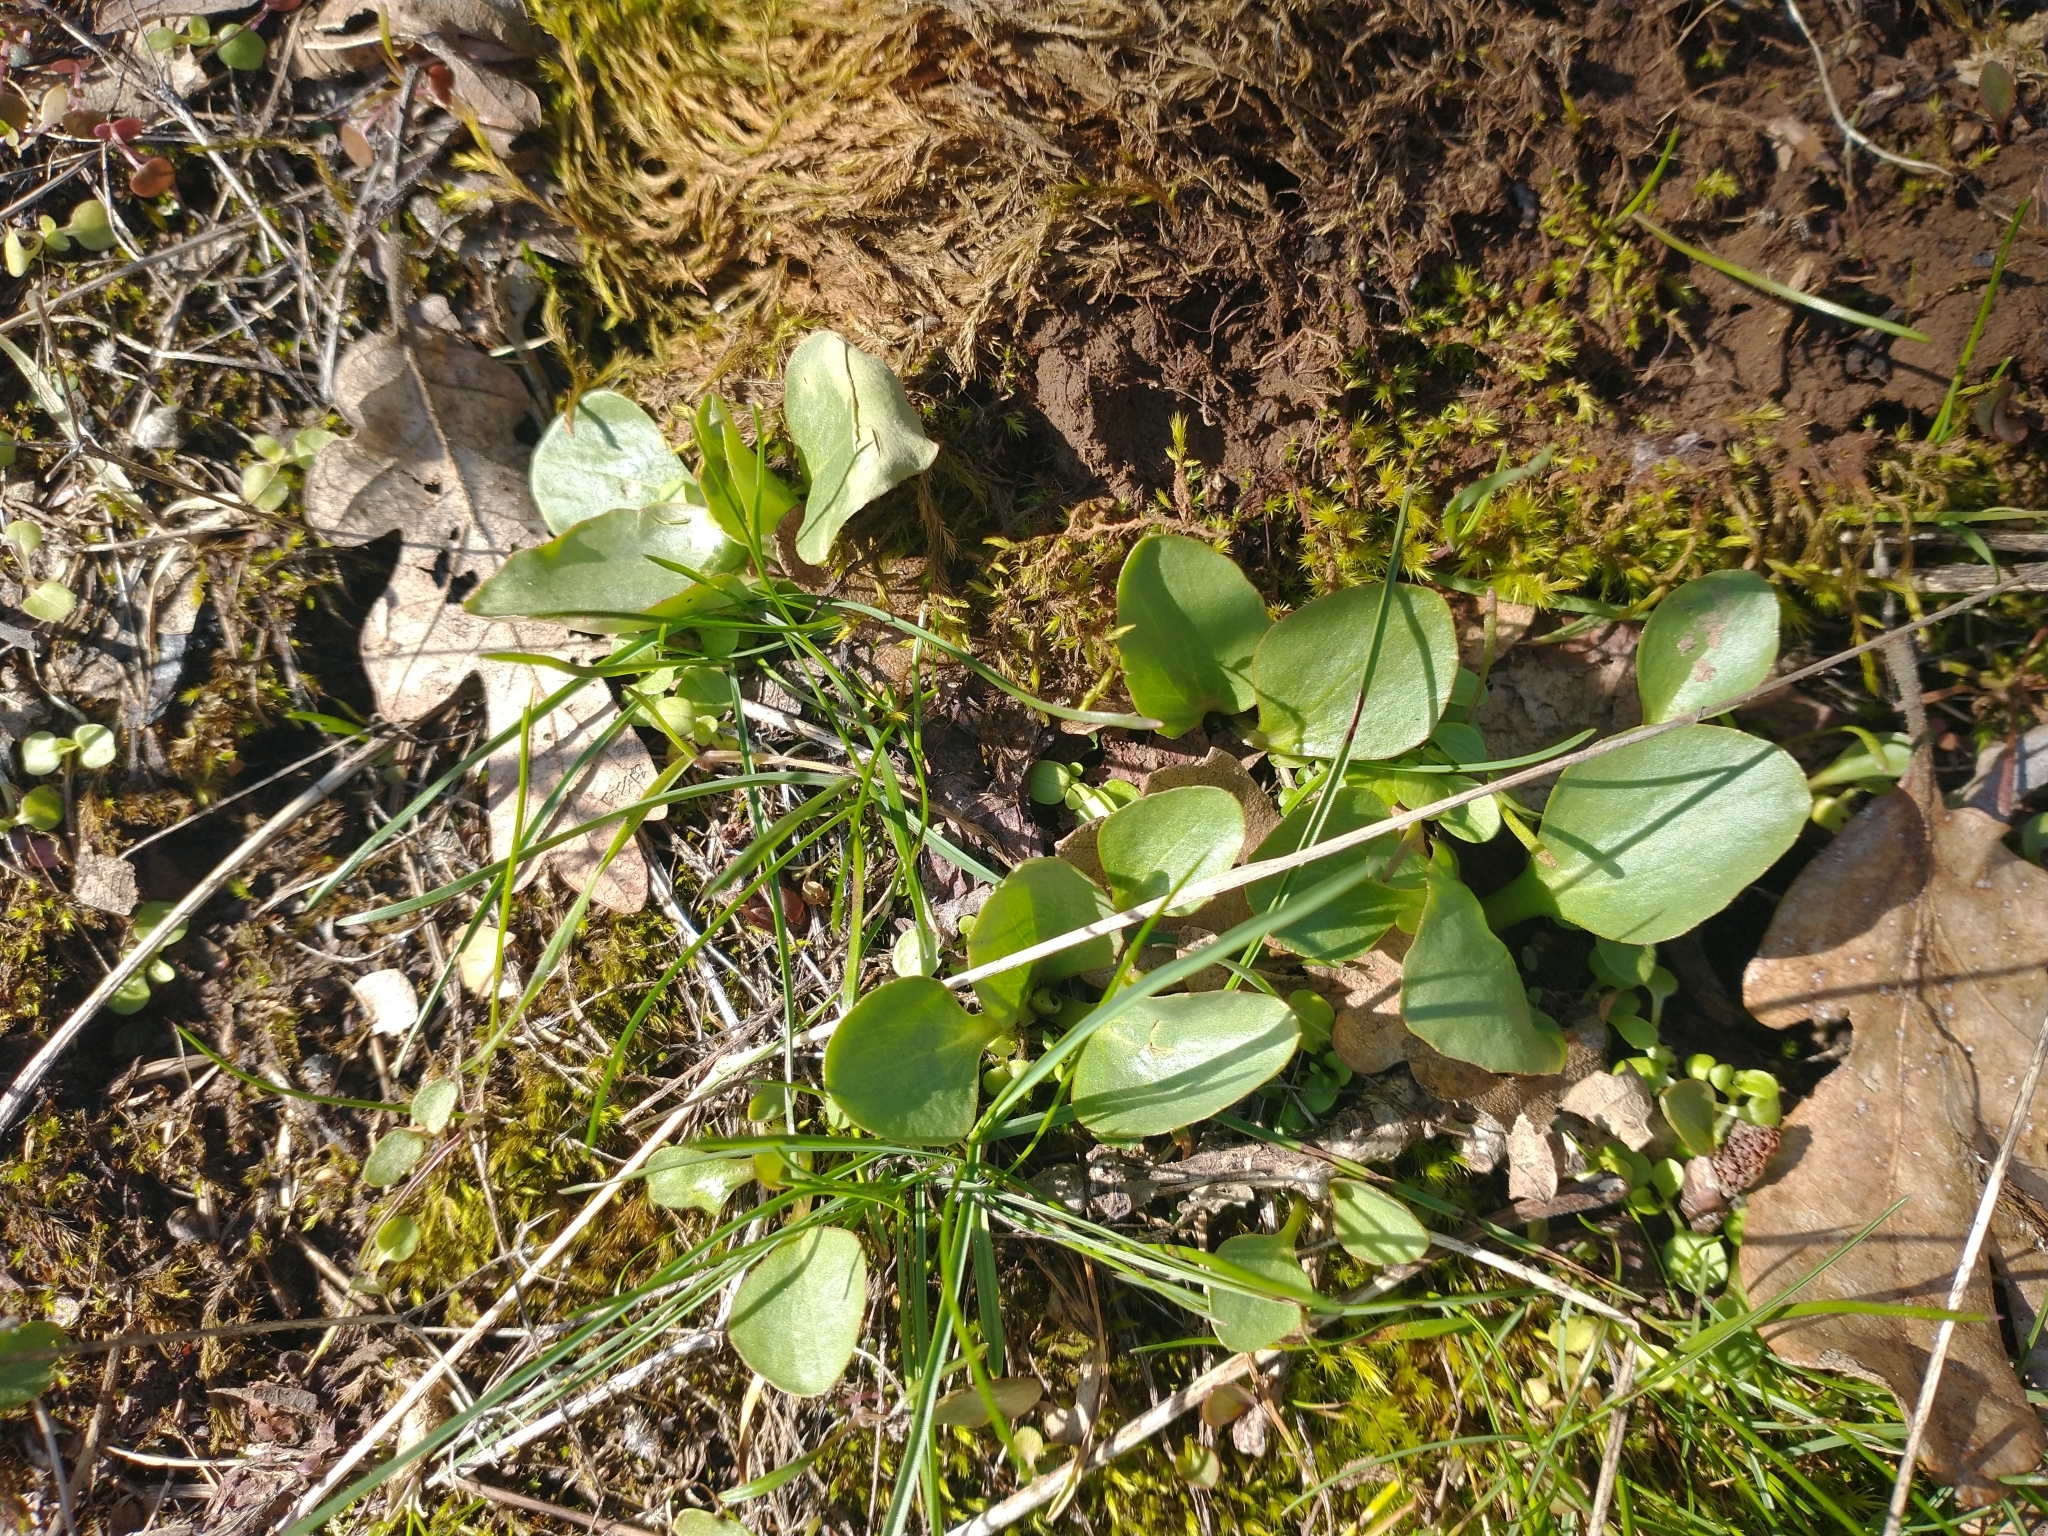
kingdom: Plantae
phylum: Tracheophyta
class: Magnoliopsida
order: Saxifragales
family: Saxifragaceae
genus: Micranthes
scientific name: Micranthes fragosa
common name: Peak saxifrage
